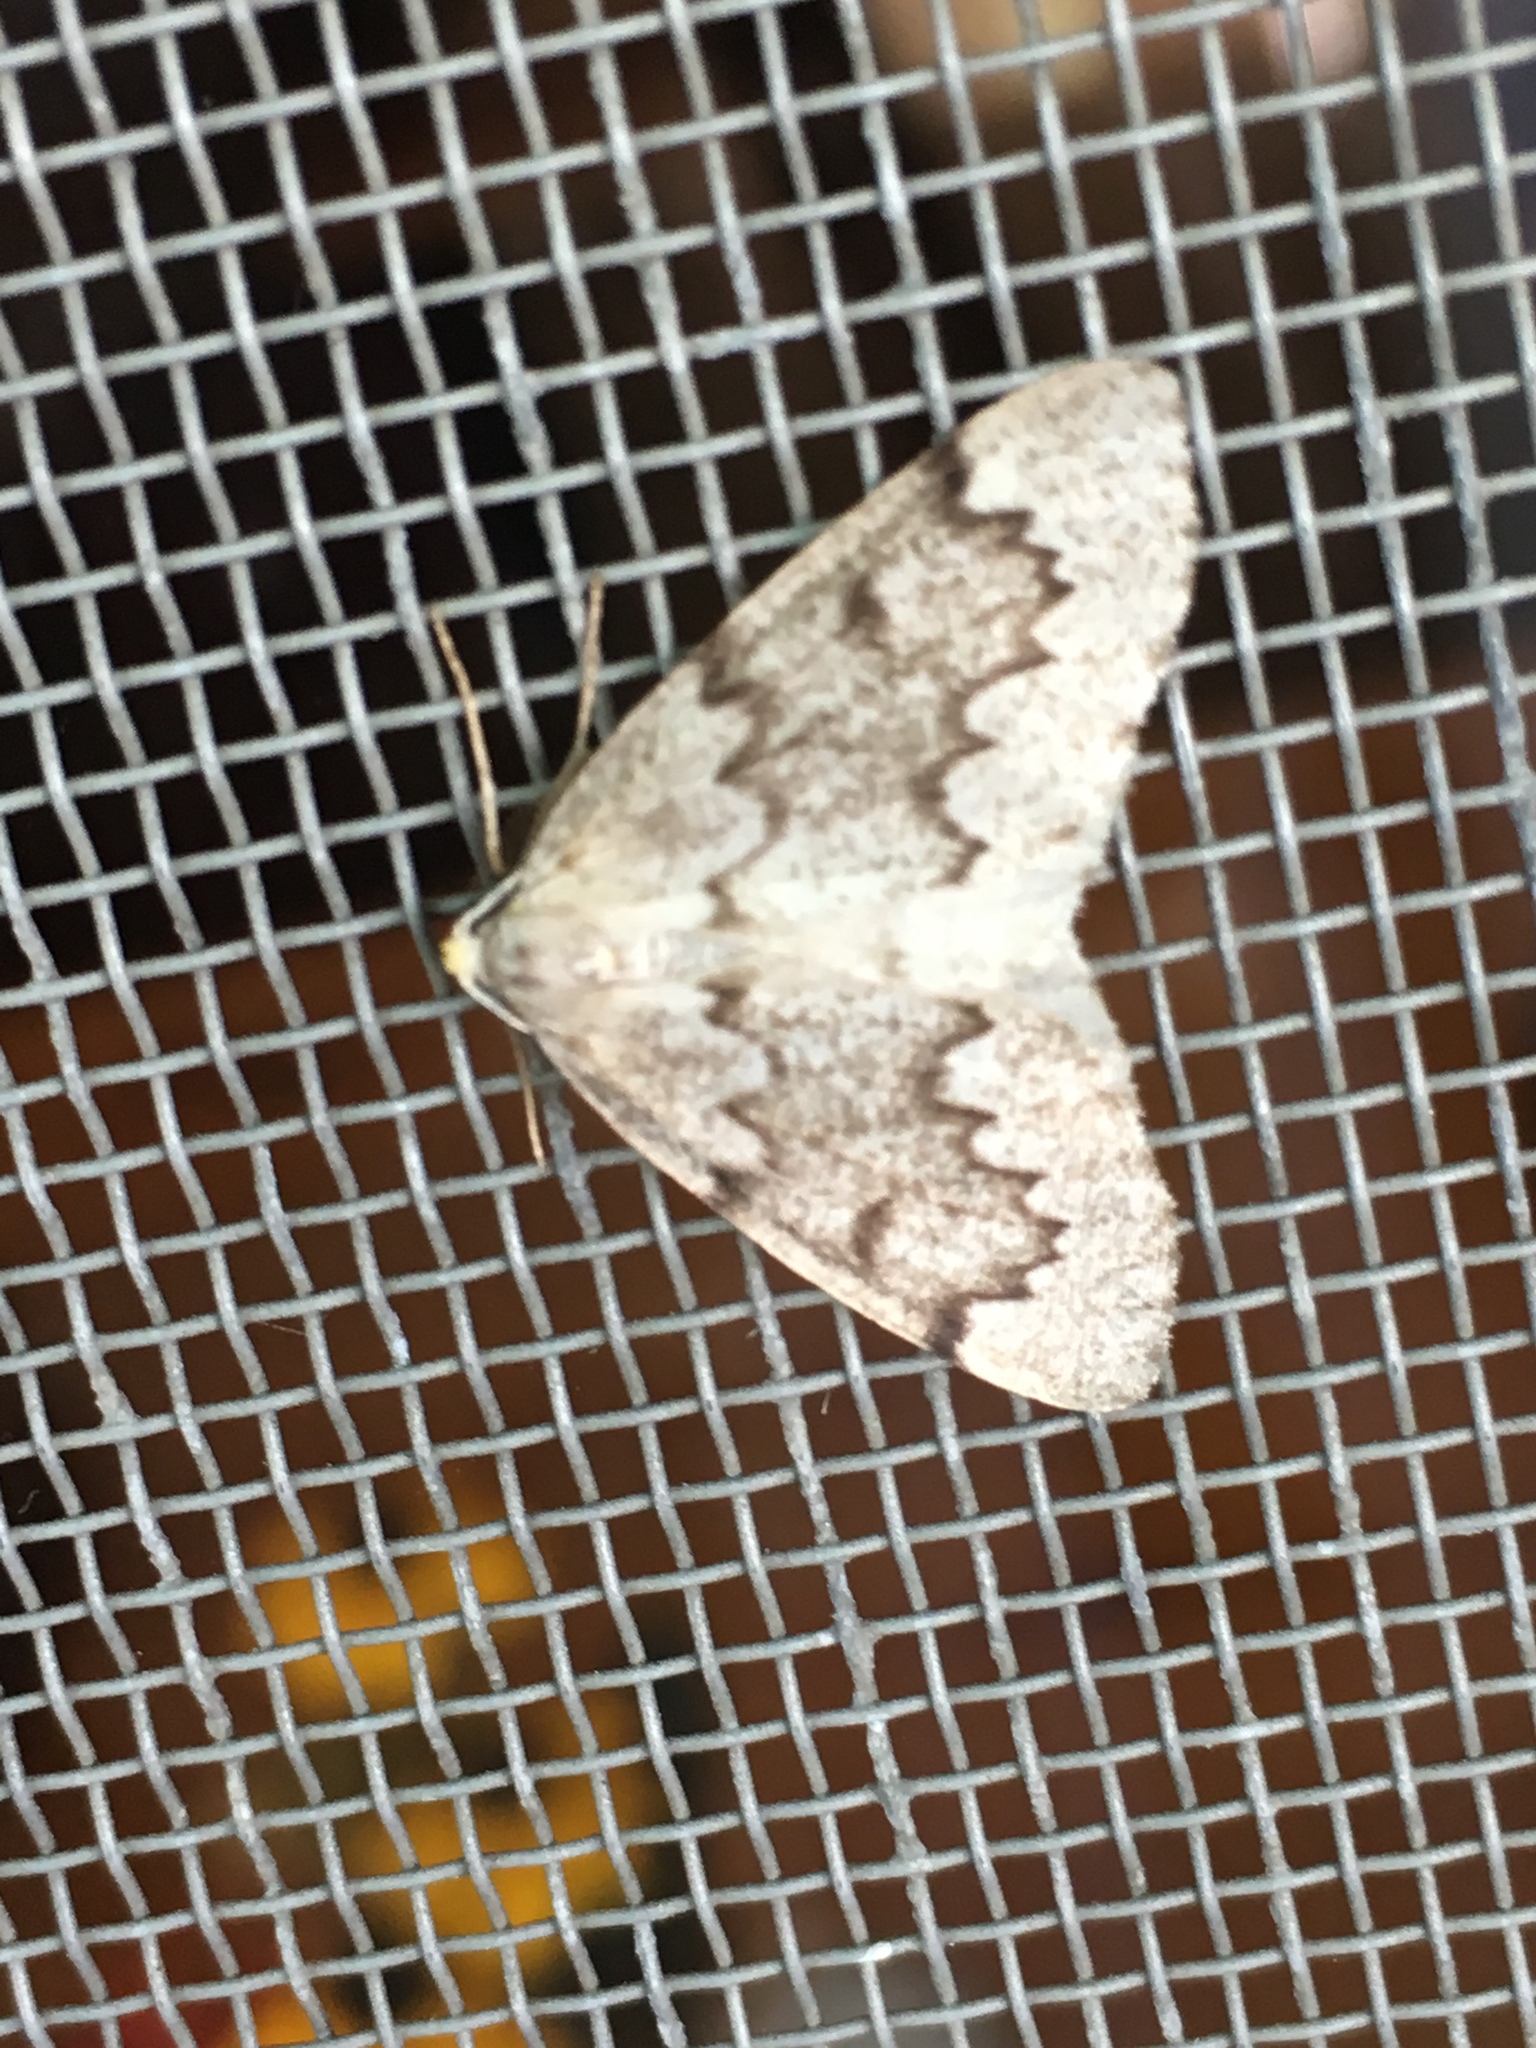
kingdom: Animalia
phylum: Arthropoda
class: Insecta
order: Lepidoptera
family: Geometridae
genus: Nepytia
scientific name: Nepytia canosaria
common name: False hemlock looper
